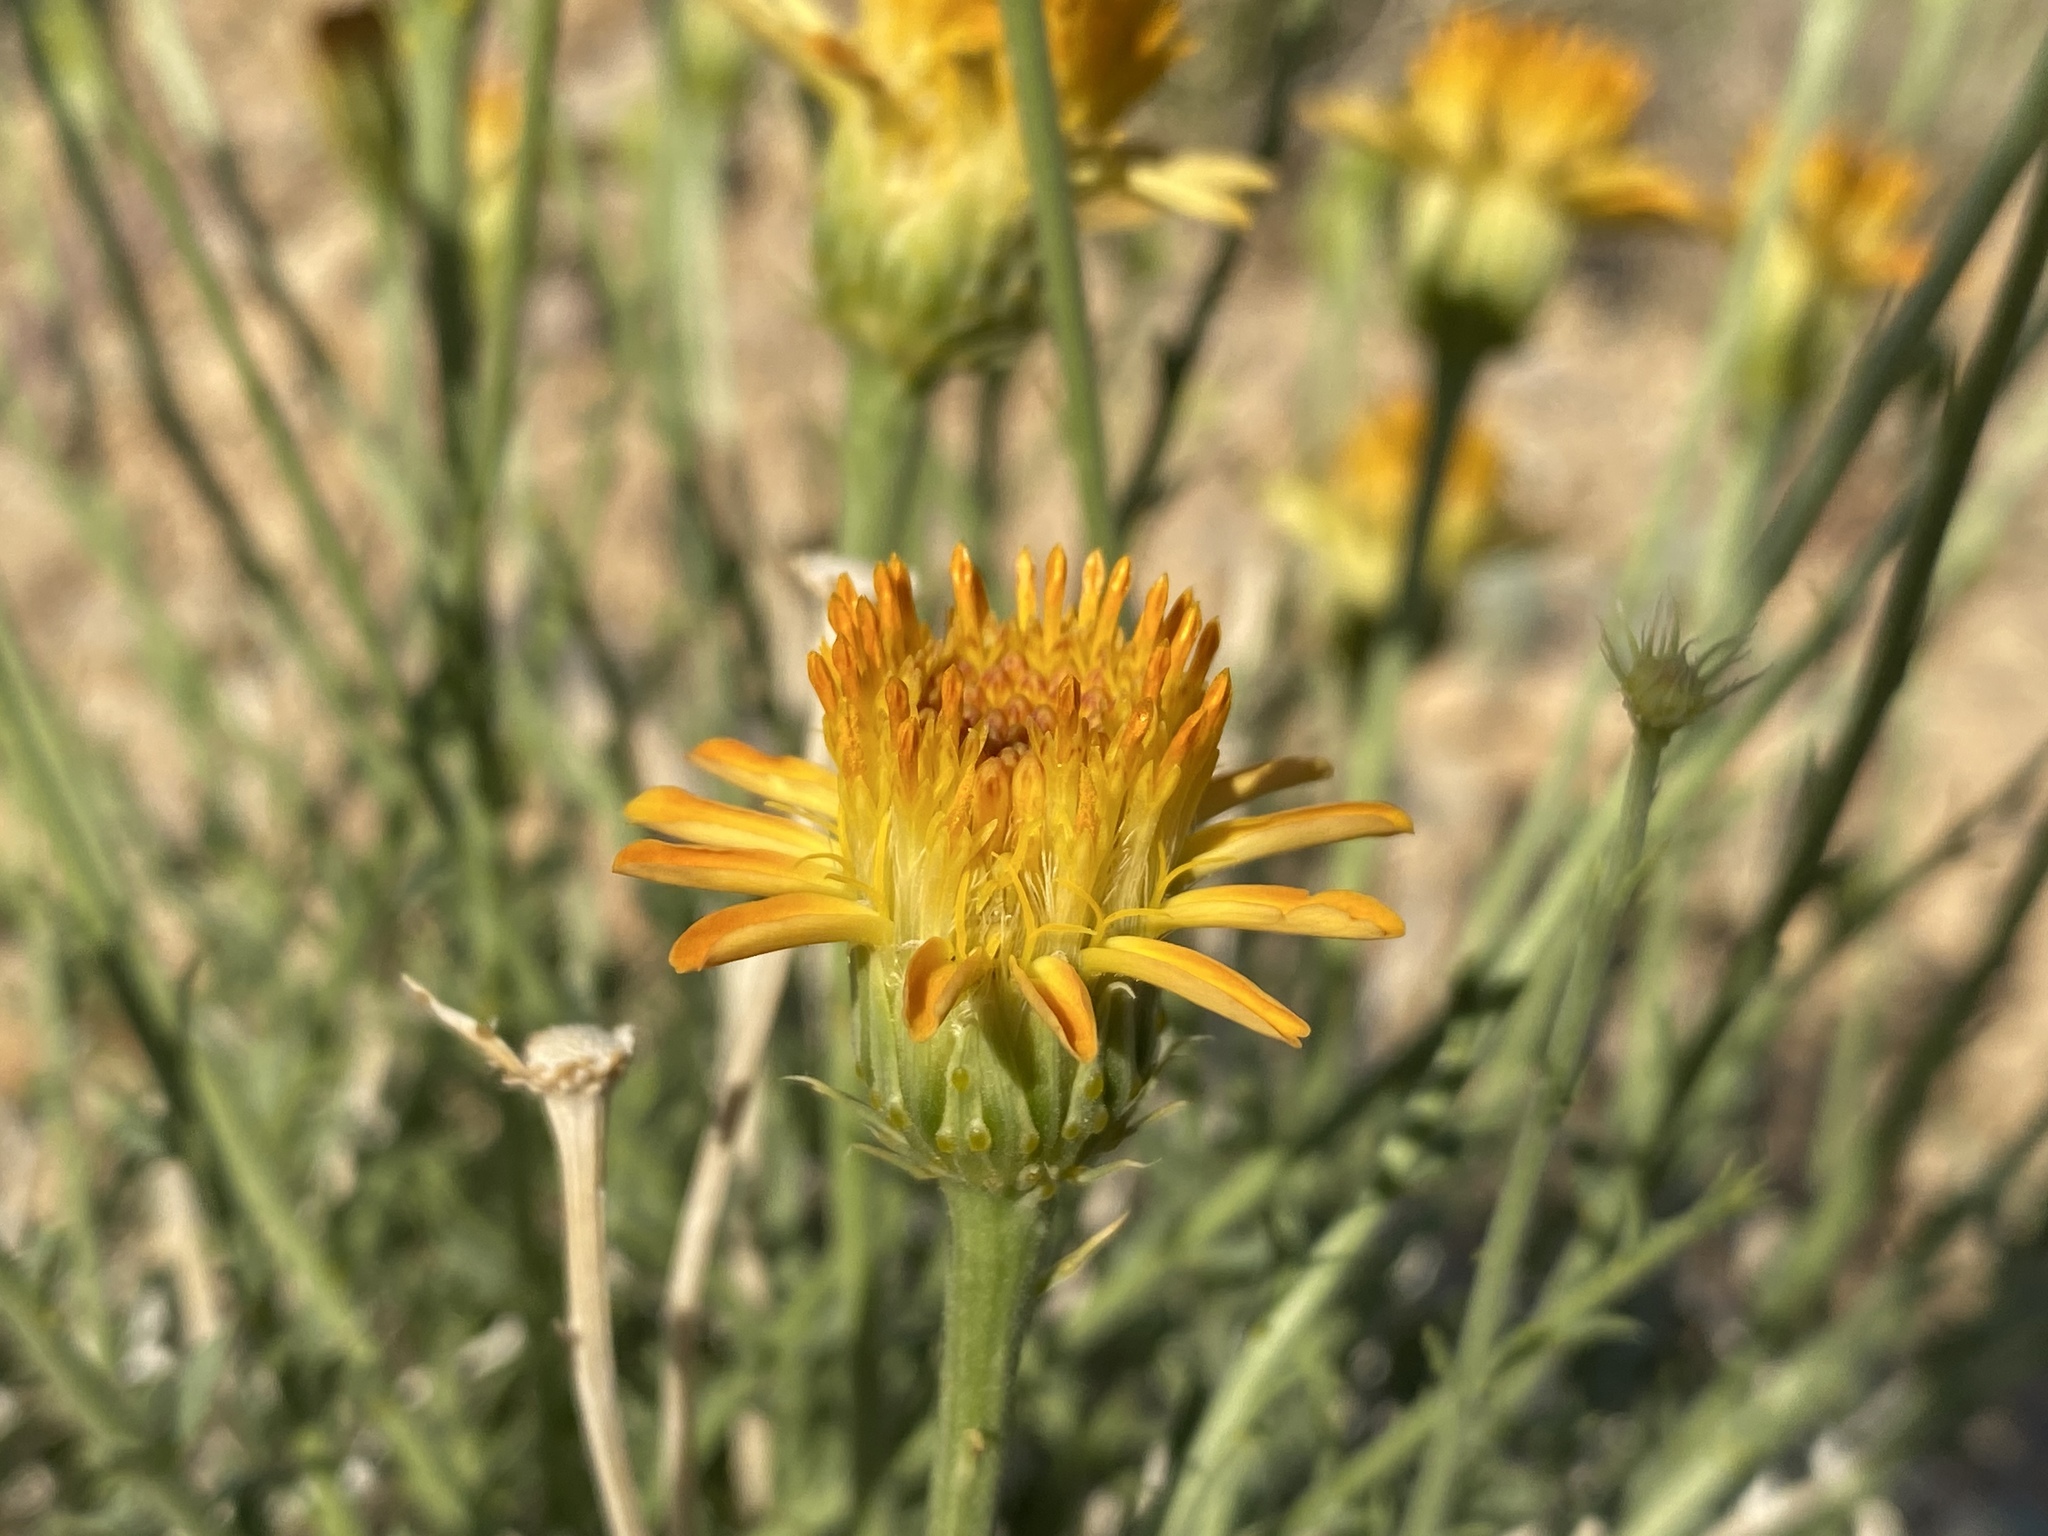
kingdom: Plantae
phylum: Tracheophyta
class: Magnoliopsida
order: Asterales
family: Asteraceae
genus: Adenophyllum
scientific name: Adenophyllum cooperi
